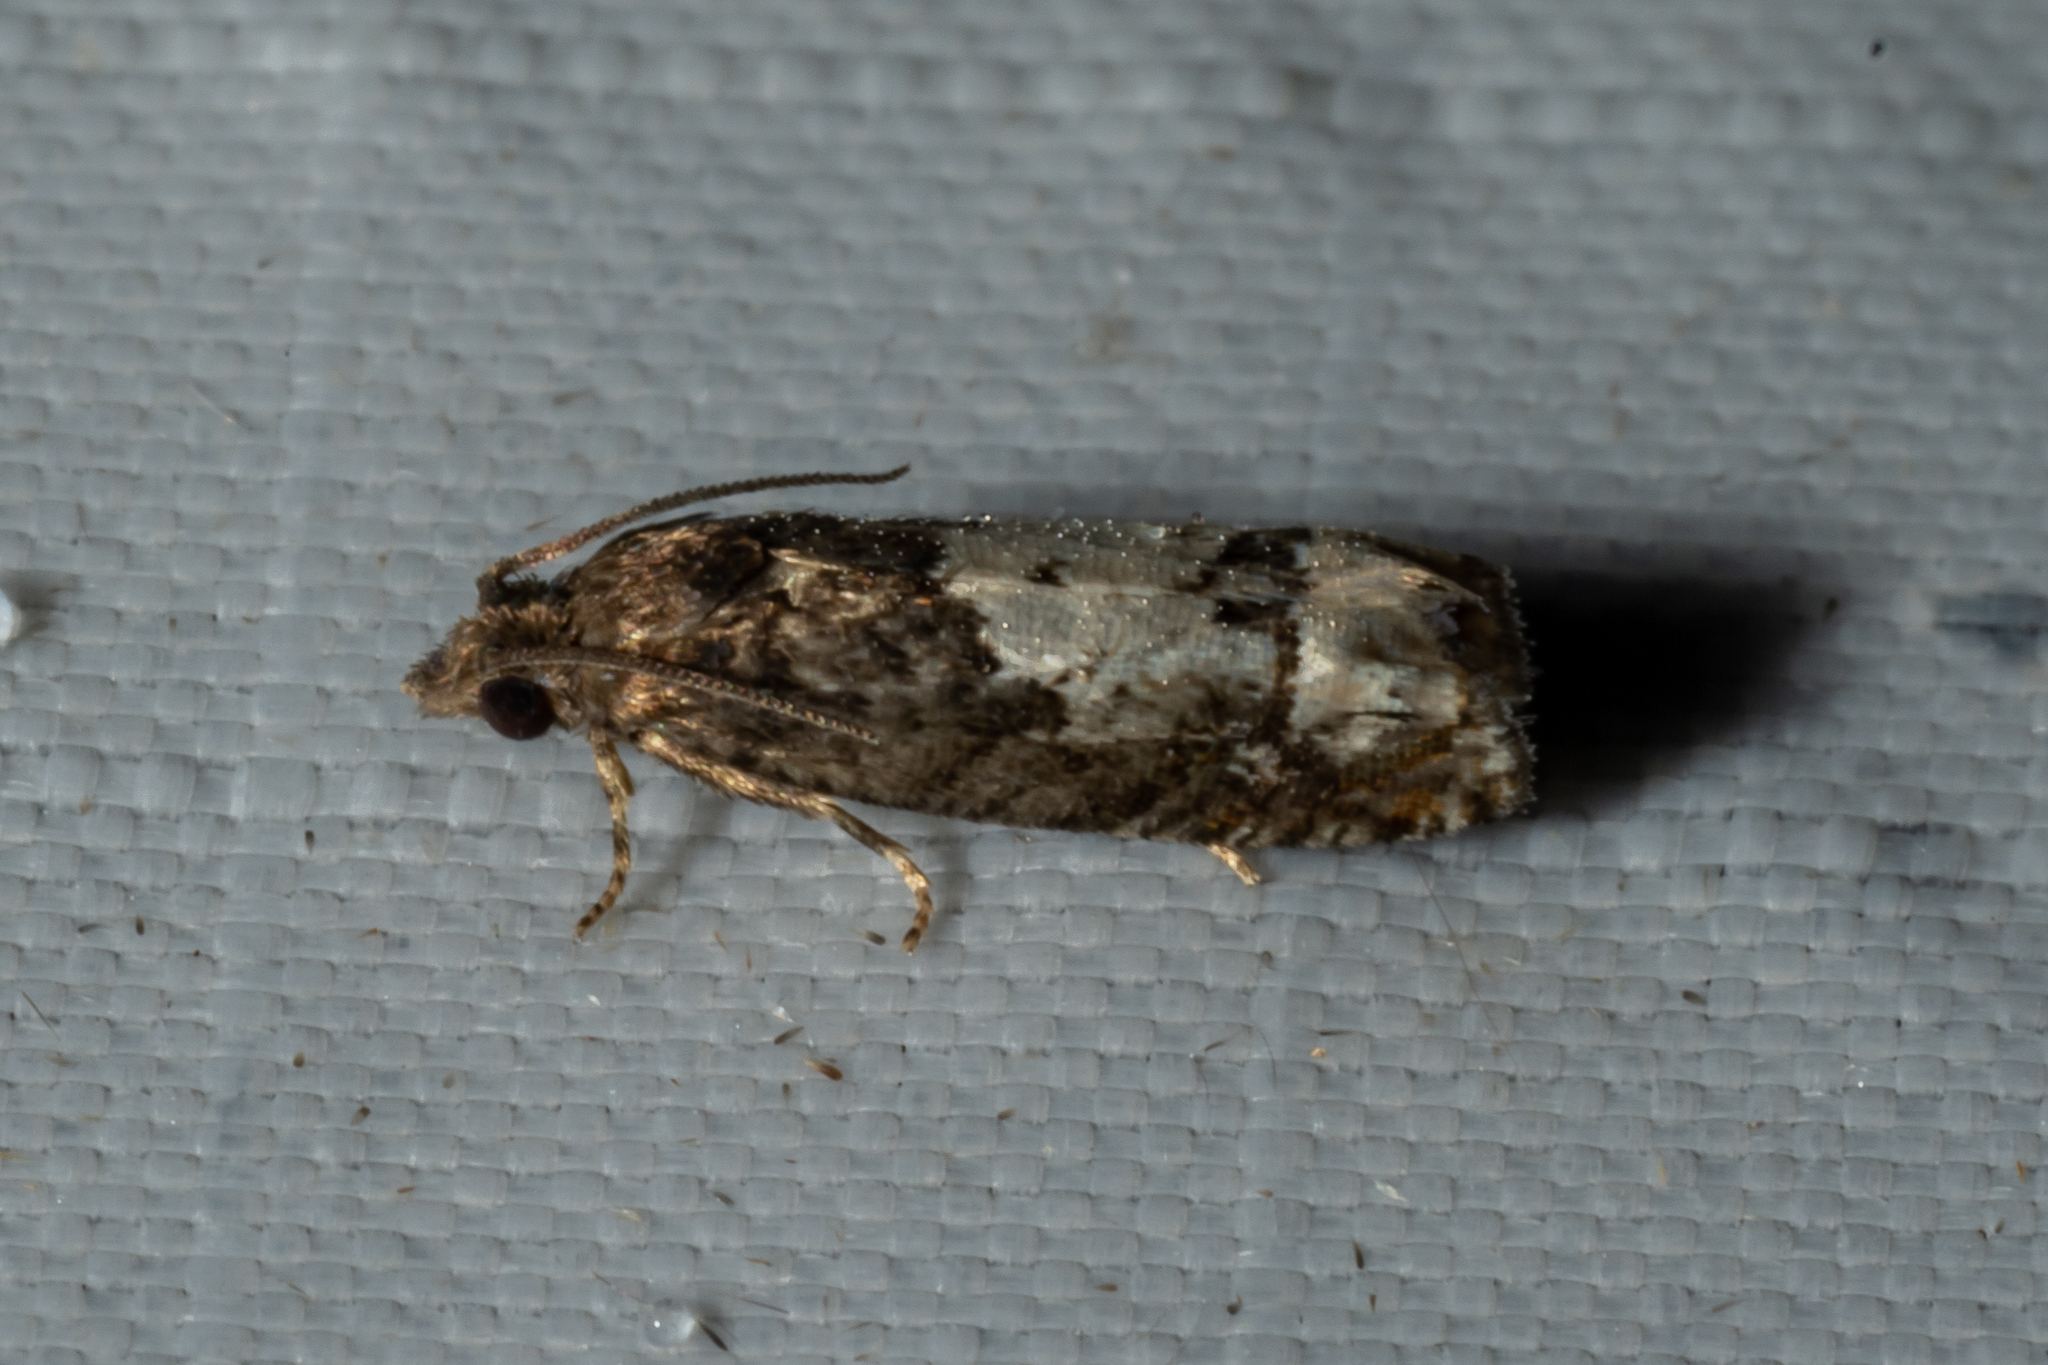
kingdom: Animalia
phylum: Arthropoda
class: Insecta
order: Lepidoptera
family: Tortricidae
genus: Eucosma
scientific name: Eucosma parmatana
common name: Aster eucosma moth
